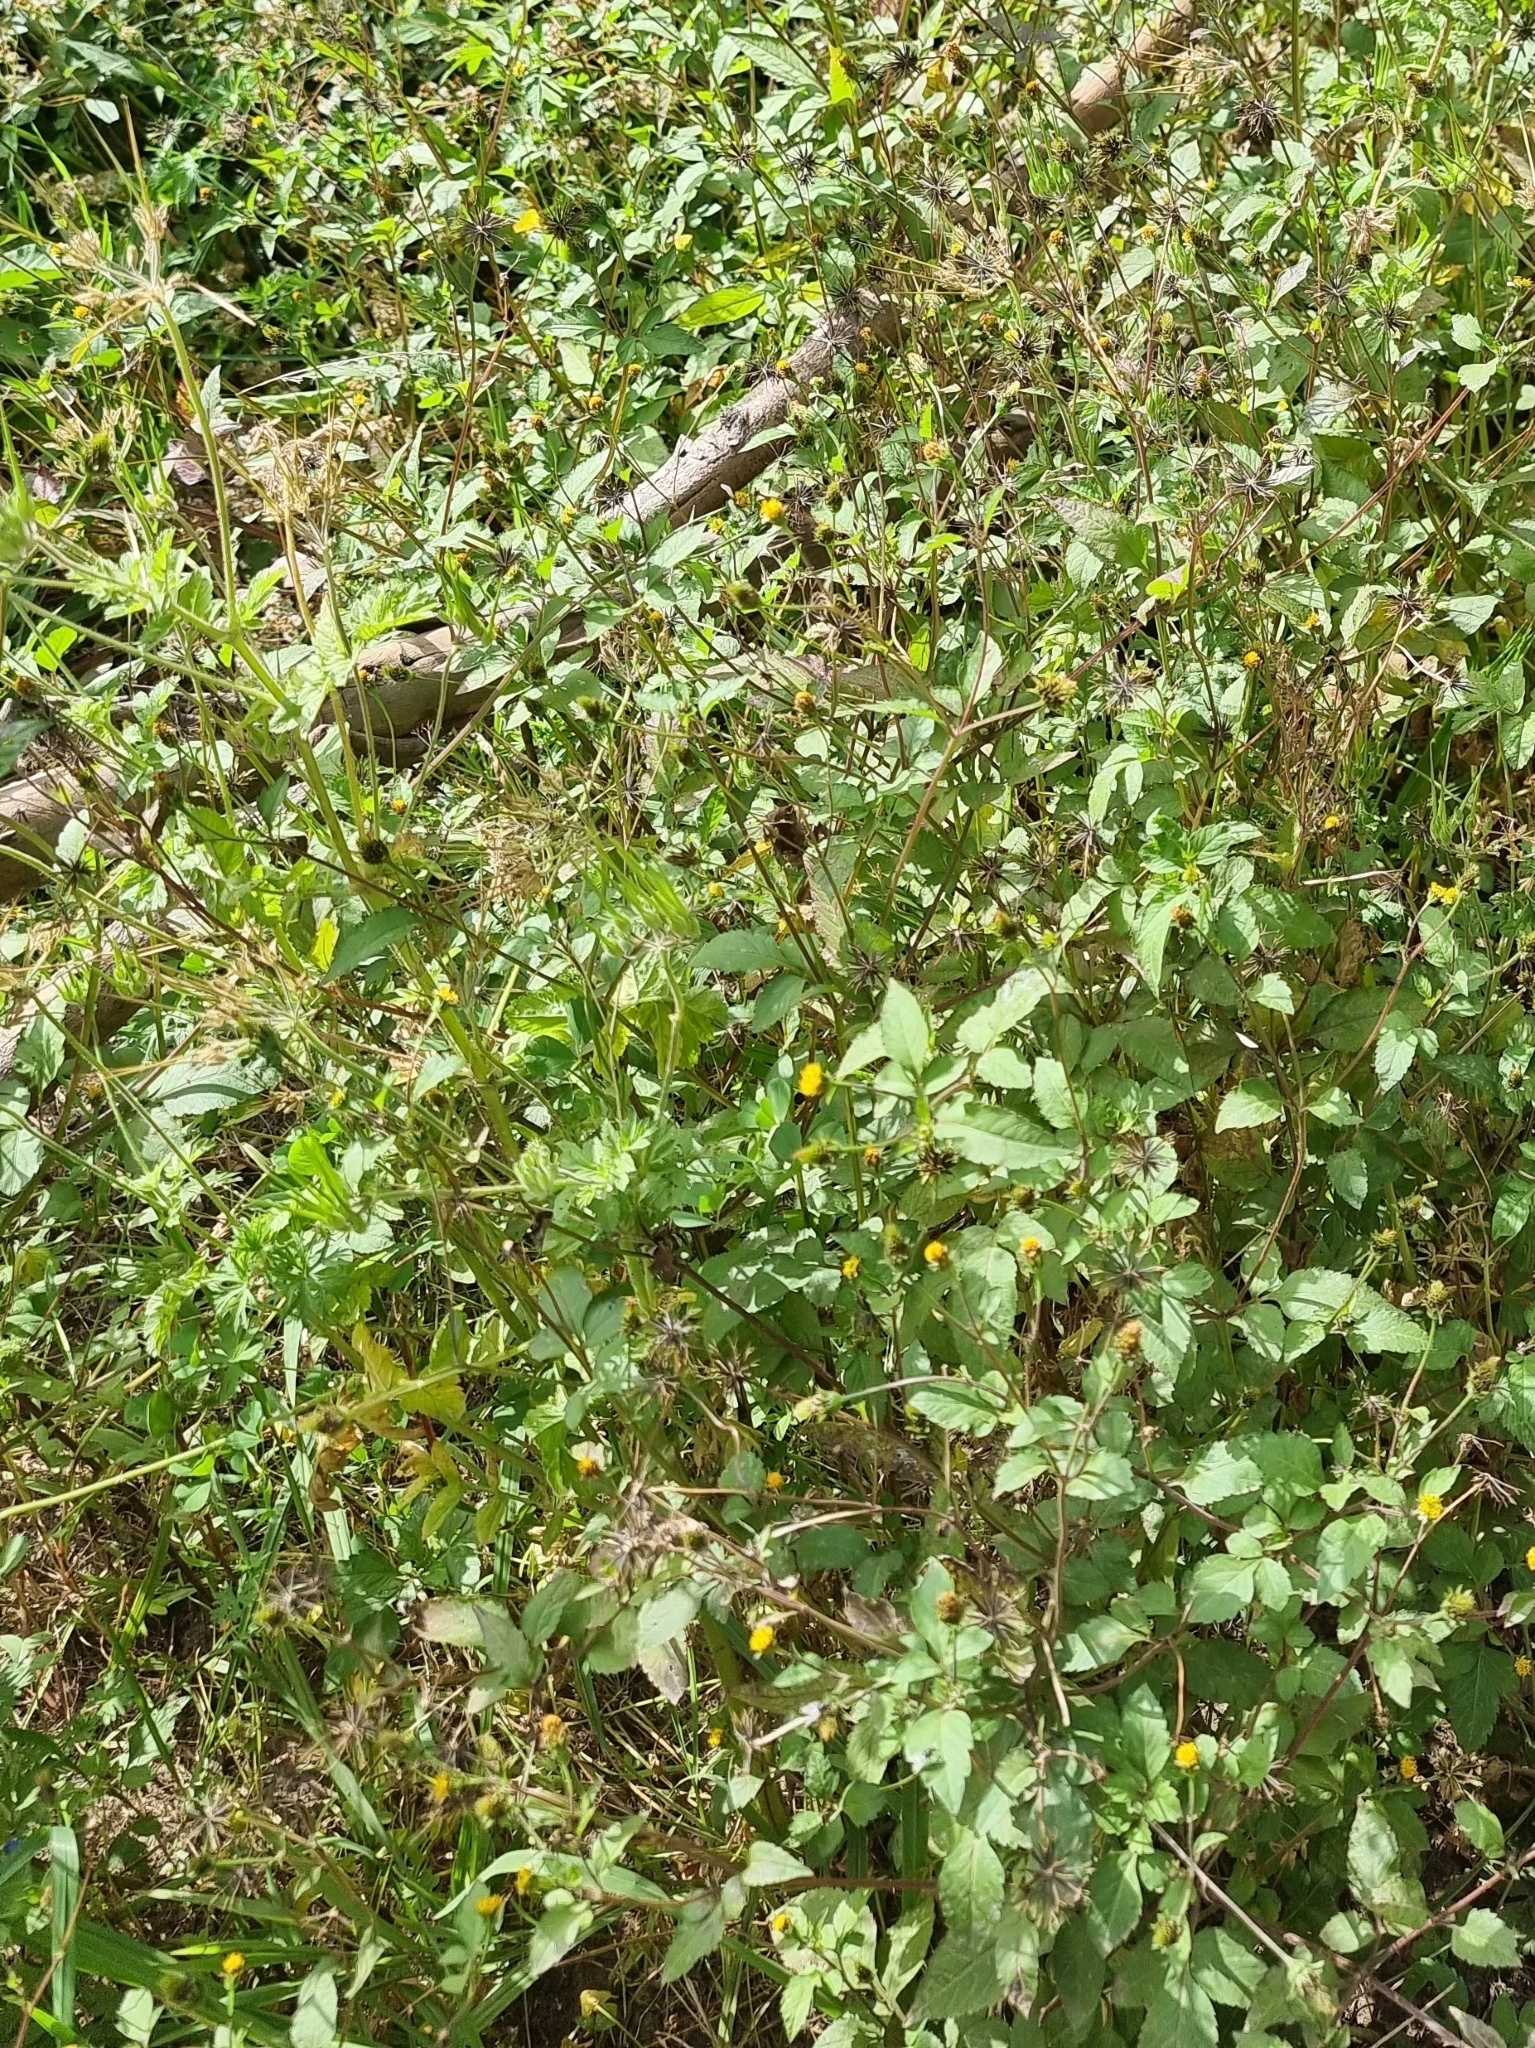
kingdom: Plantae
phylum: Tracheophyta
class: Magnoliopsida
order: Asterales
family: Asteraceae
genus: Bidens
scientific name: Bidens pilosa
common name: Black-jack
